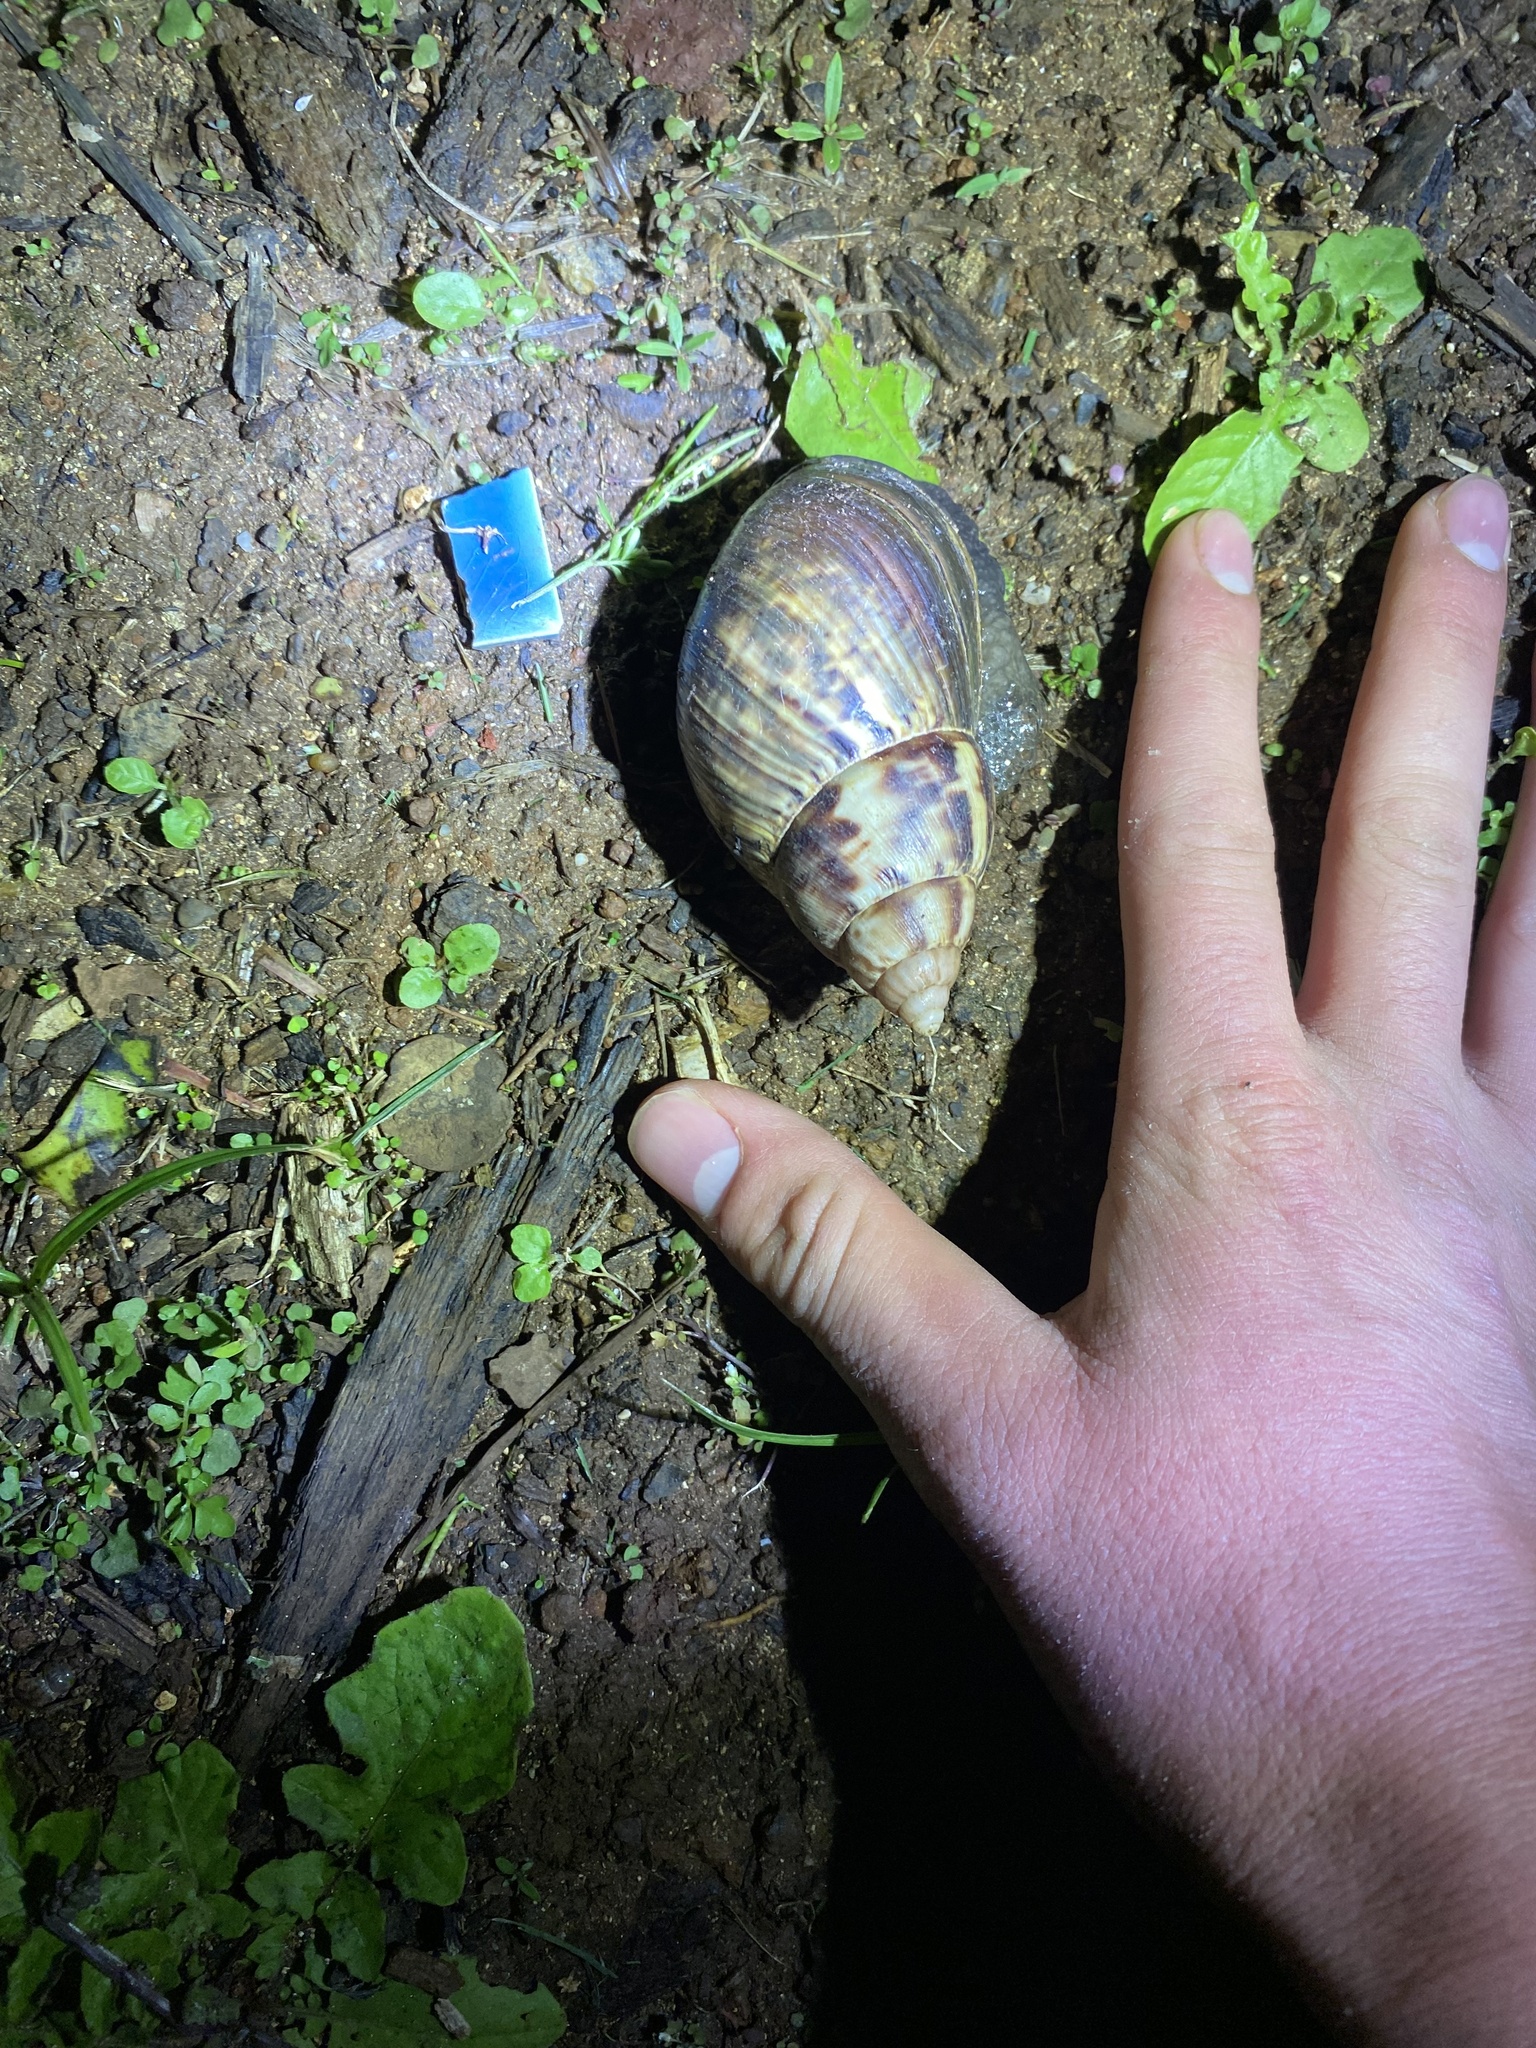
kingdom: Animalia
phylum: Mollusca
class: Gastropoda
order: Stylommatophora
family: Achatinidae
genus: Lissachatina
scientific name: Lissachatina fulica
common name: Giant african snail
